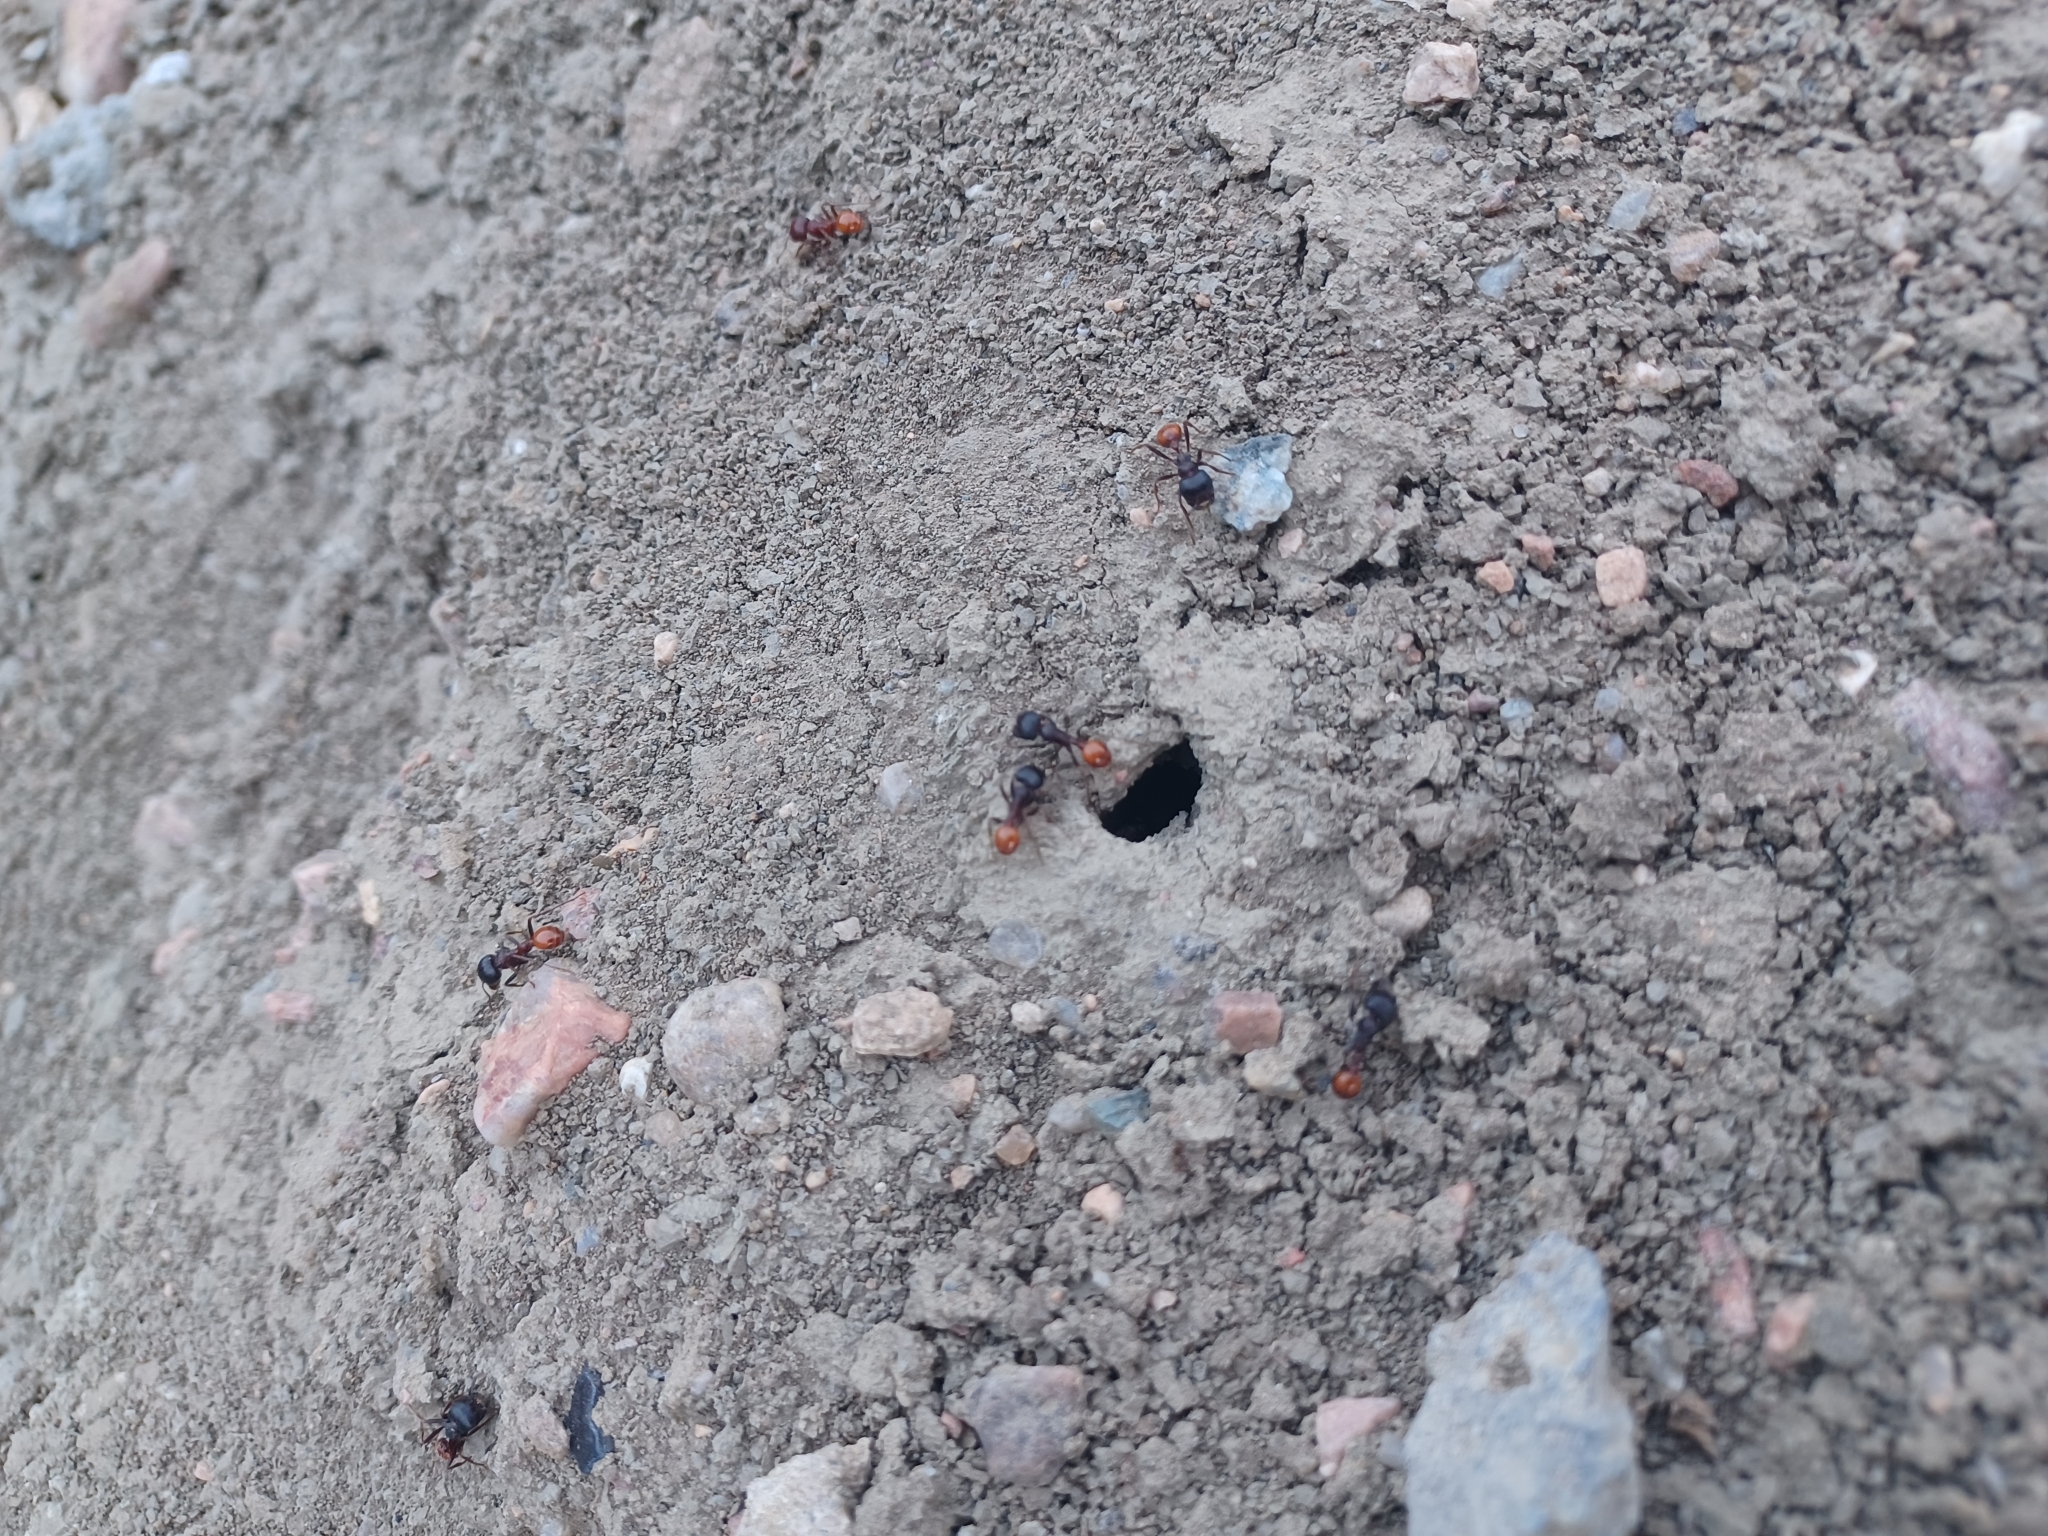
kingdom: Animalia
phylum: Arthropoda
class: Insecta
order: Hymenoptera
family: Formicidae
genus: Pogonomyrmex
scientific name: Pogonomyrmex rugosus
